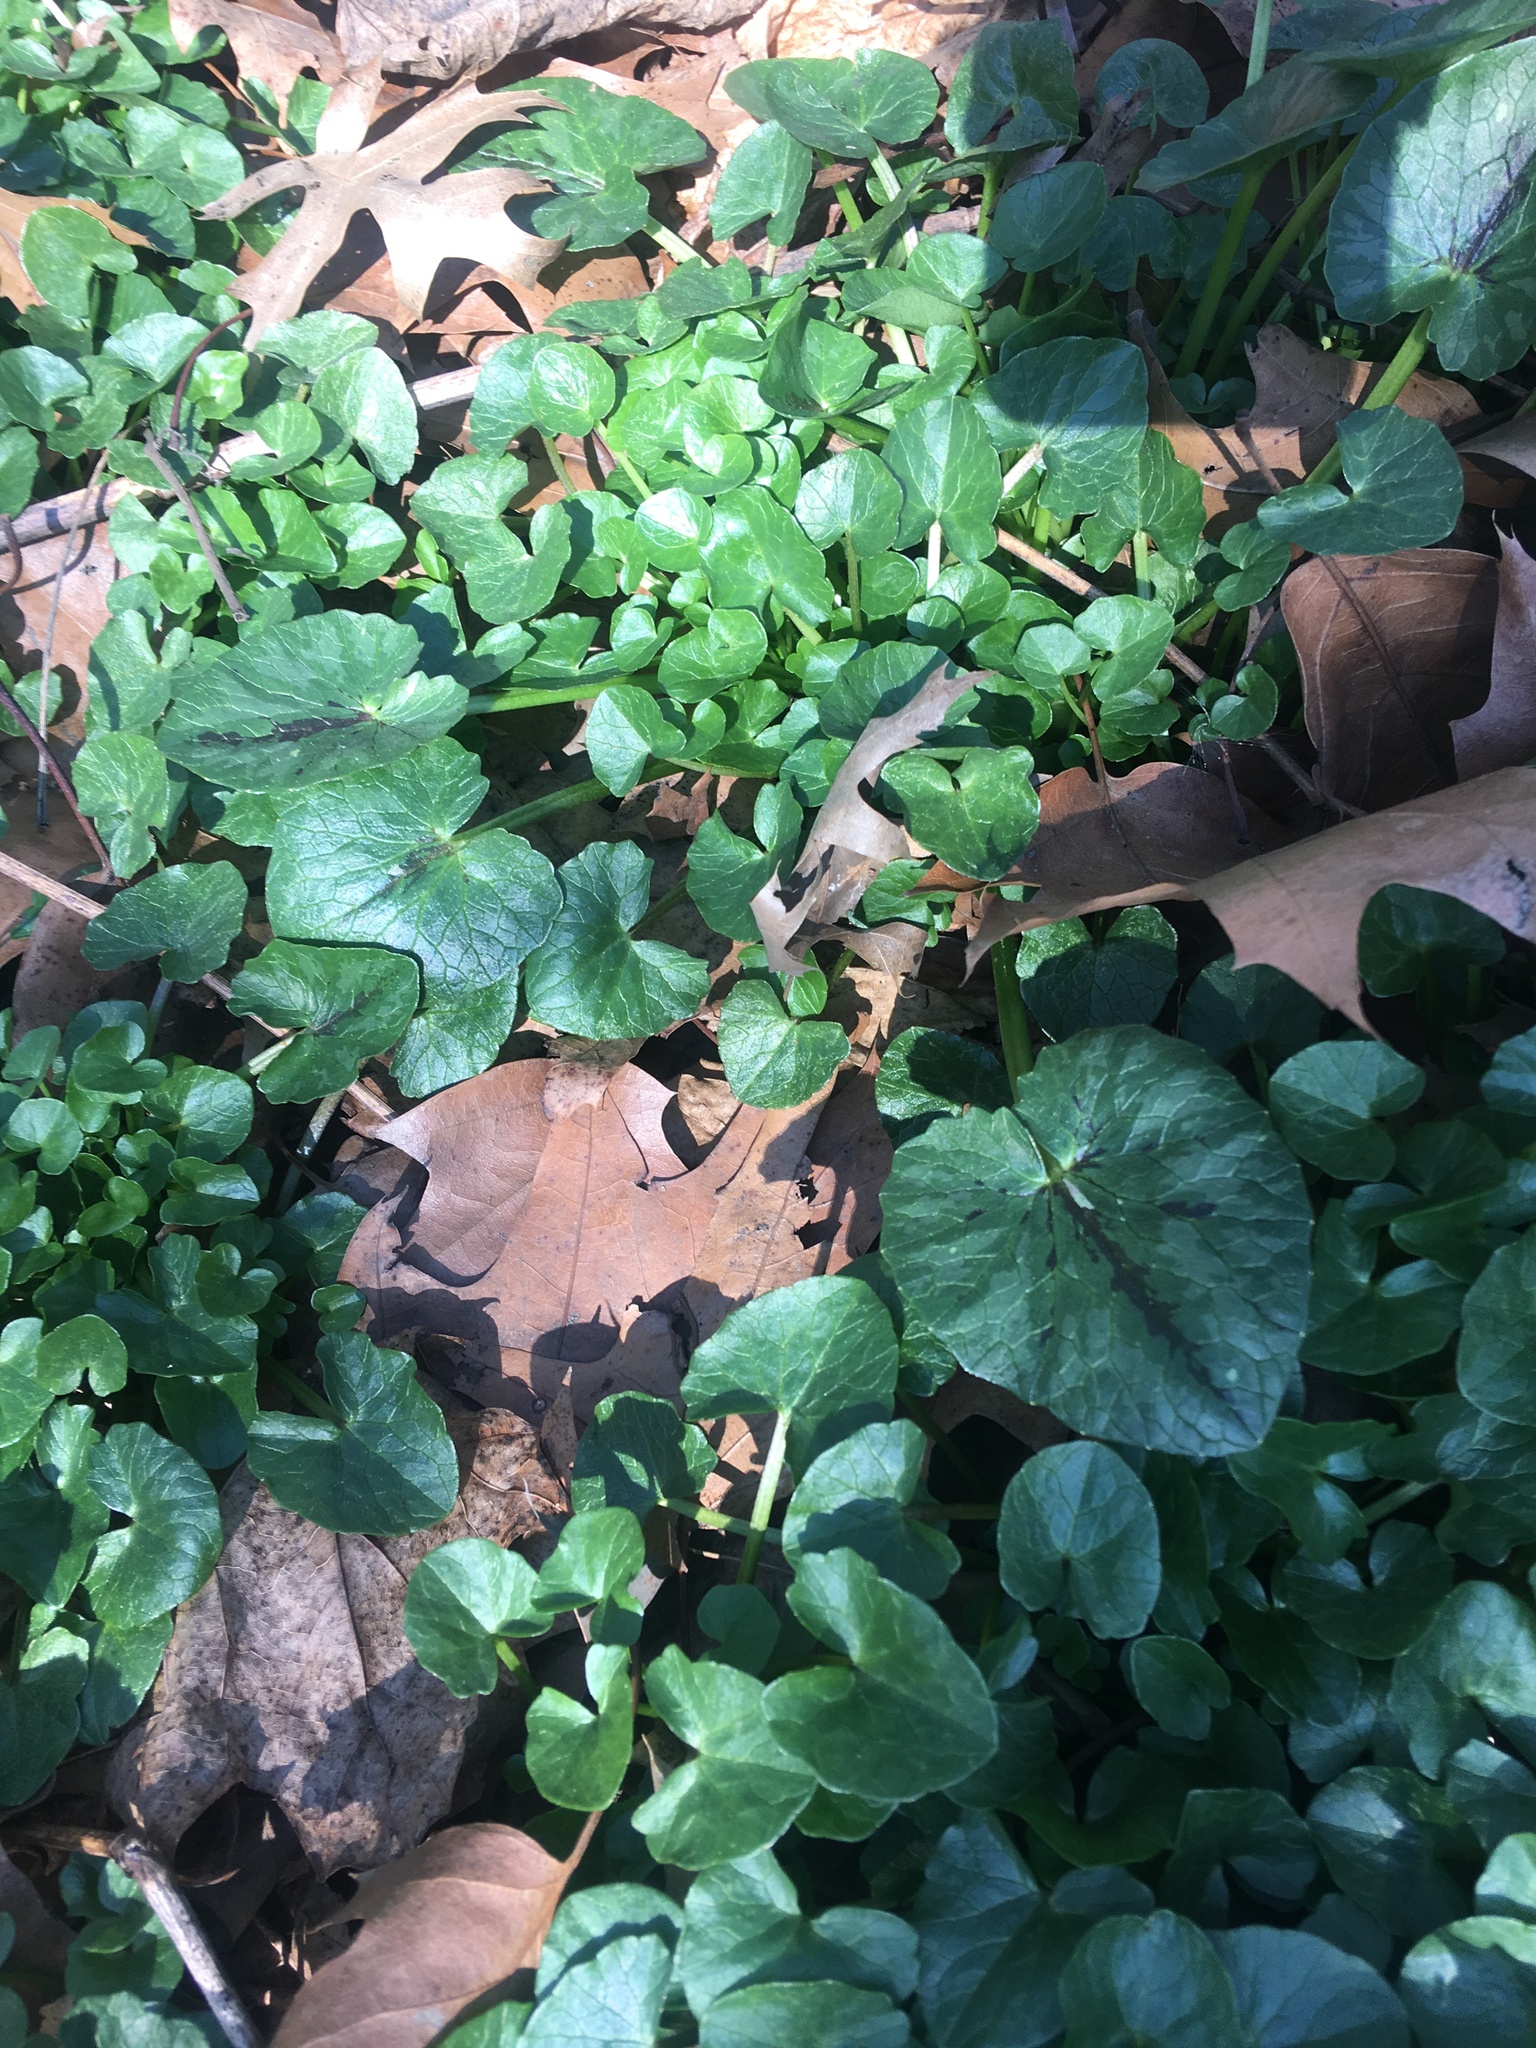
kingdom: Plantae
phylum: Tracheophyta
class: Magnoliopsida
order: Ranunculales
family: Ranunculaceae
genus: Ficaria
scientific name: Ficaria verna
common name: Lesser celandine
